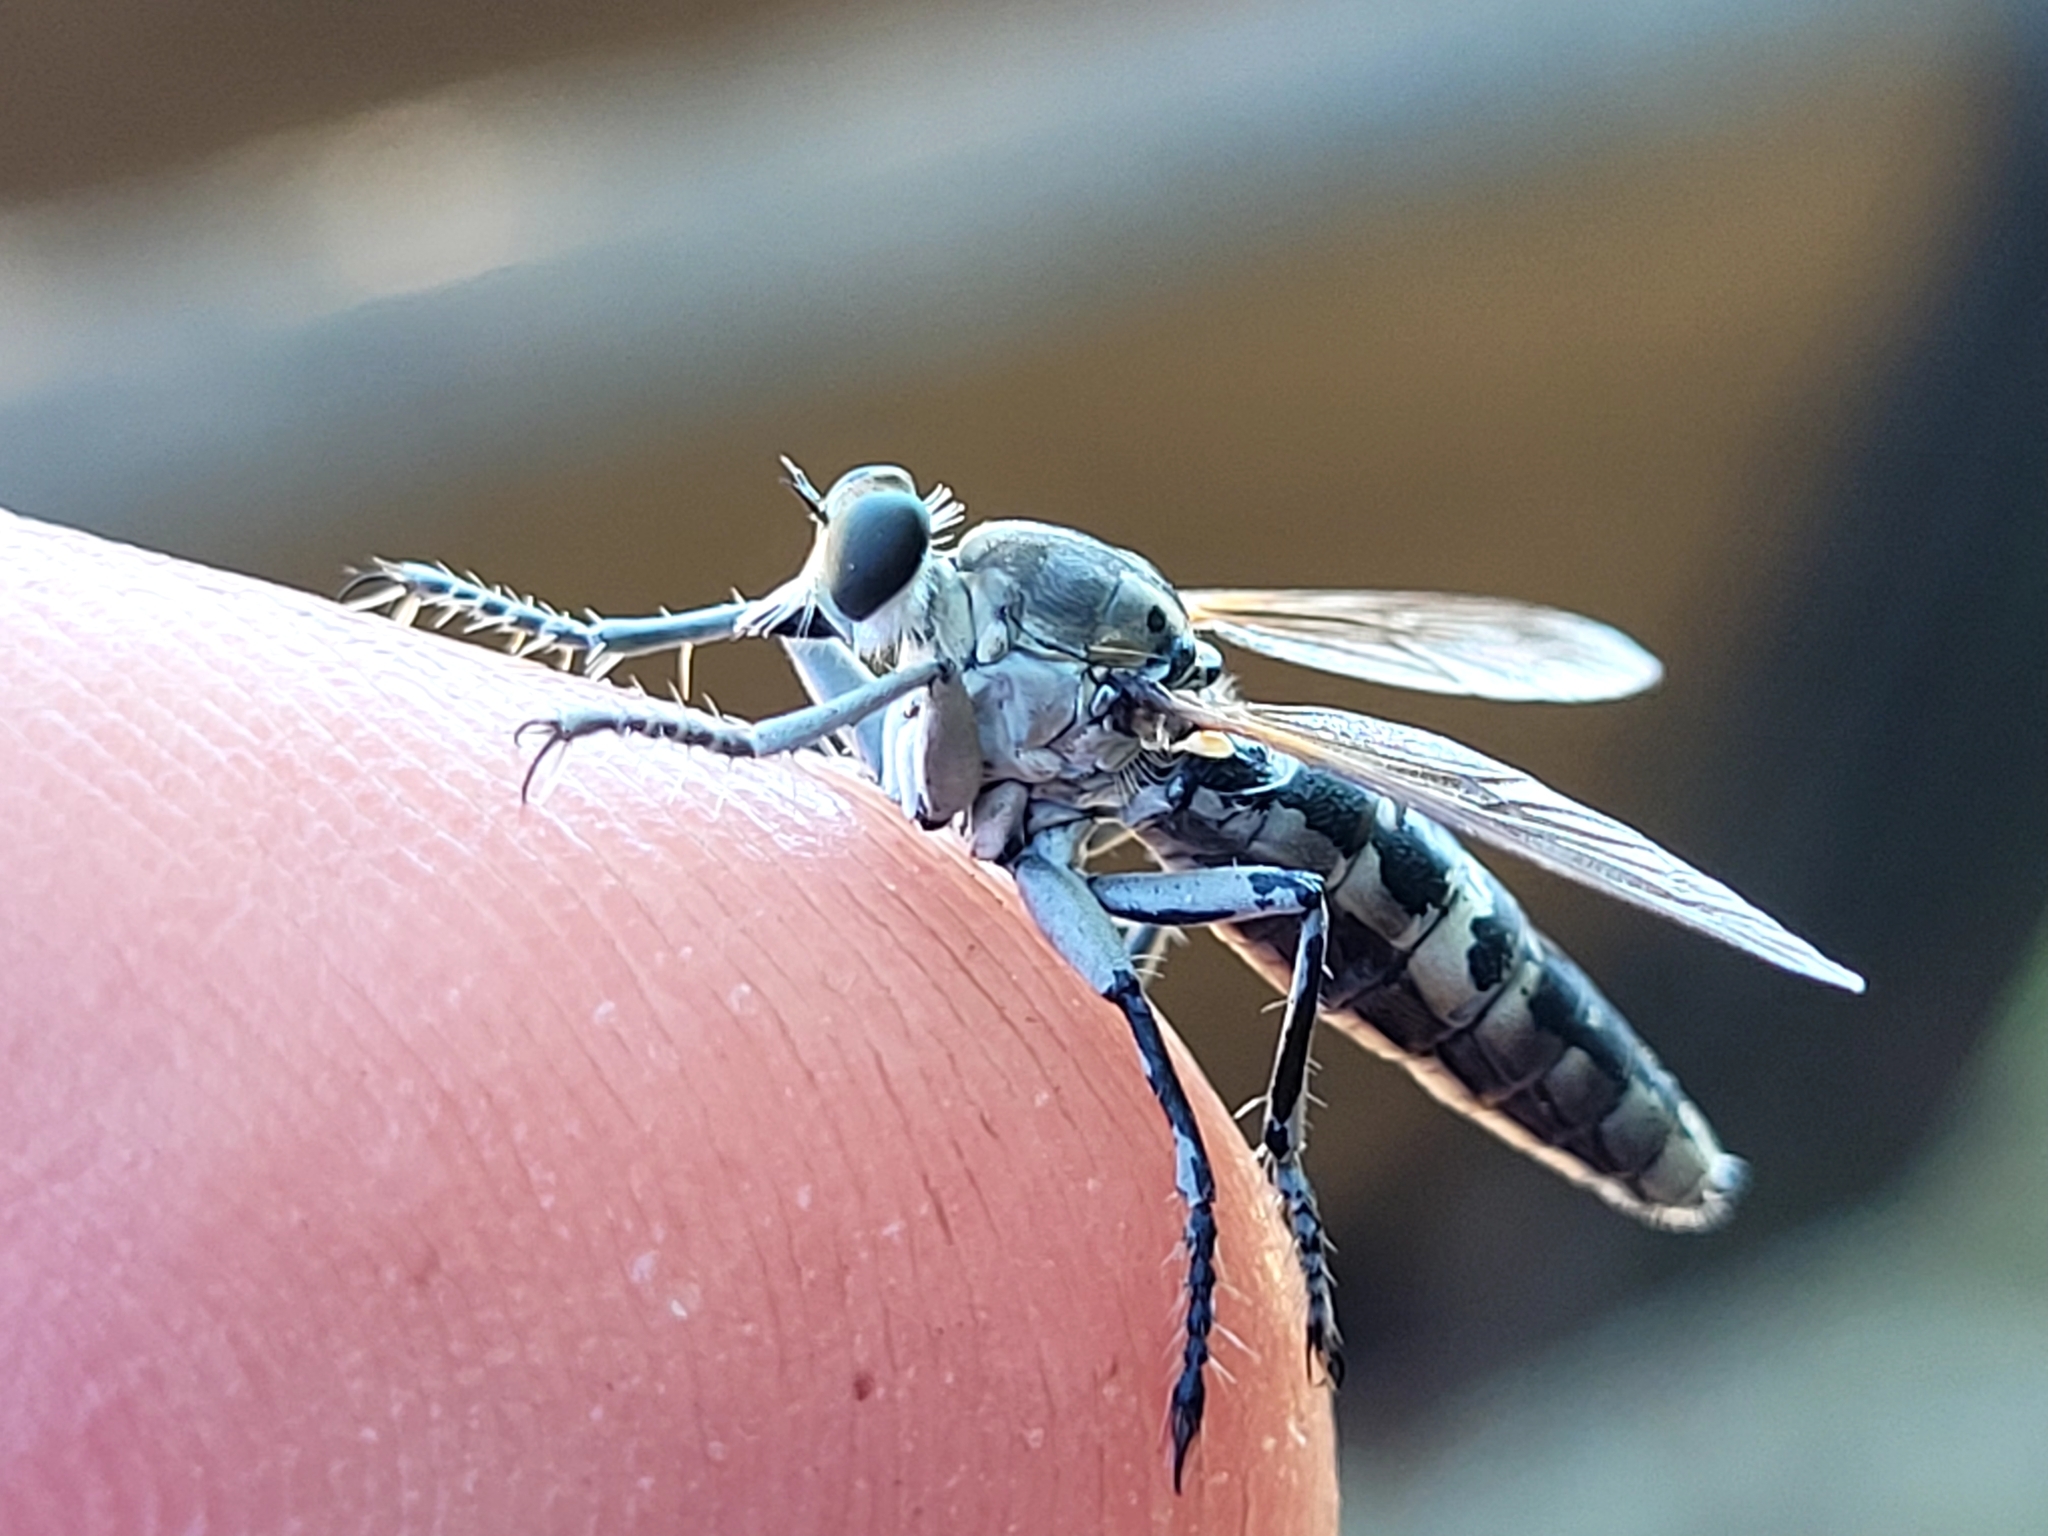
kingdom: Animalia
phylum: Arthropoda
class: Insecta
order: Diptera
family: Asilidae
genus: Stichopogon
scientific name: Stichopogon trifasciatus
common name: Three-banded robber fly
